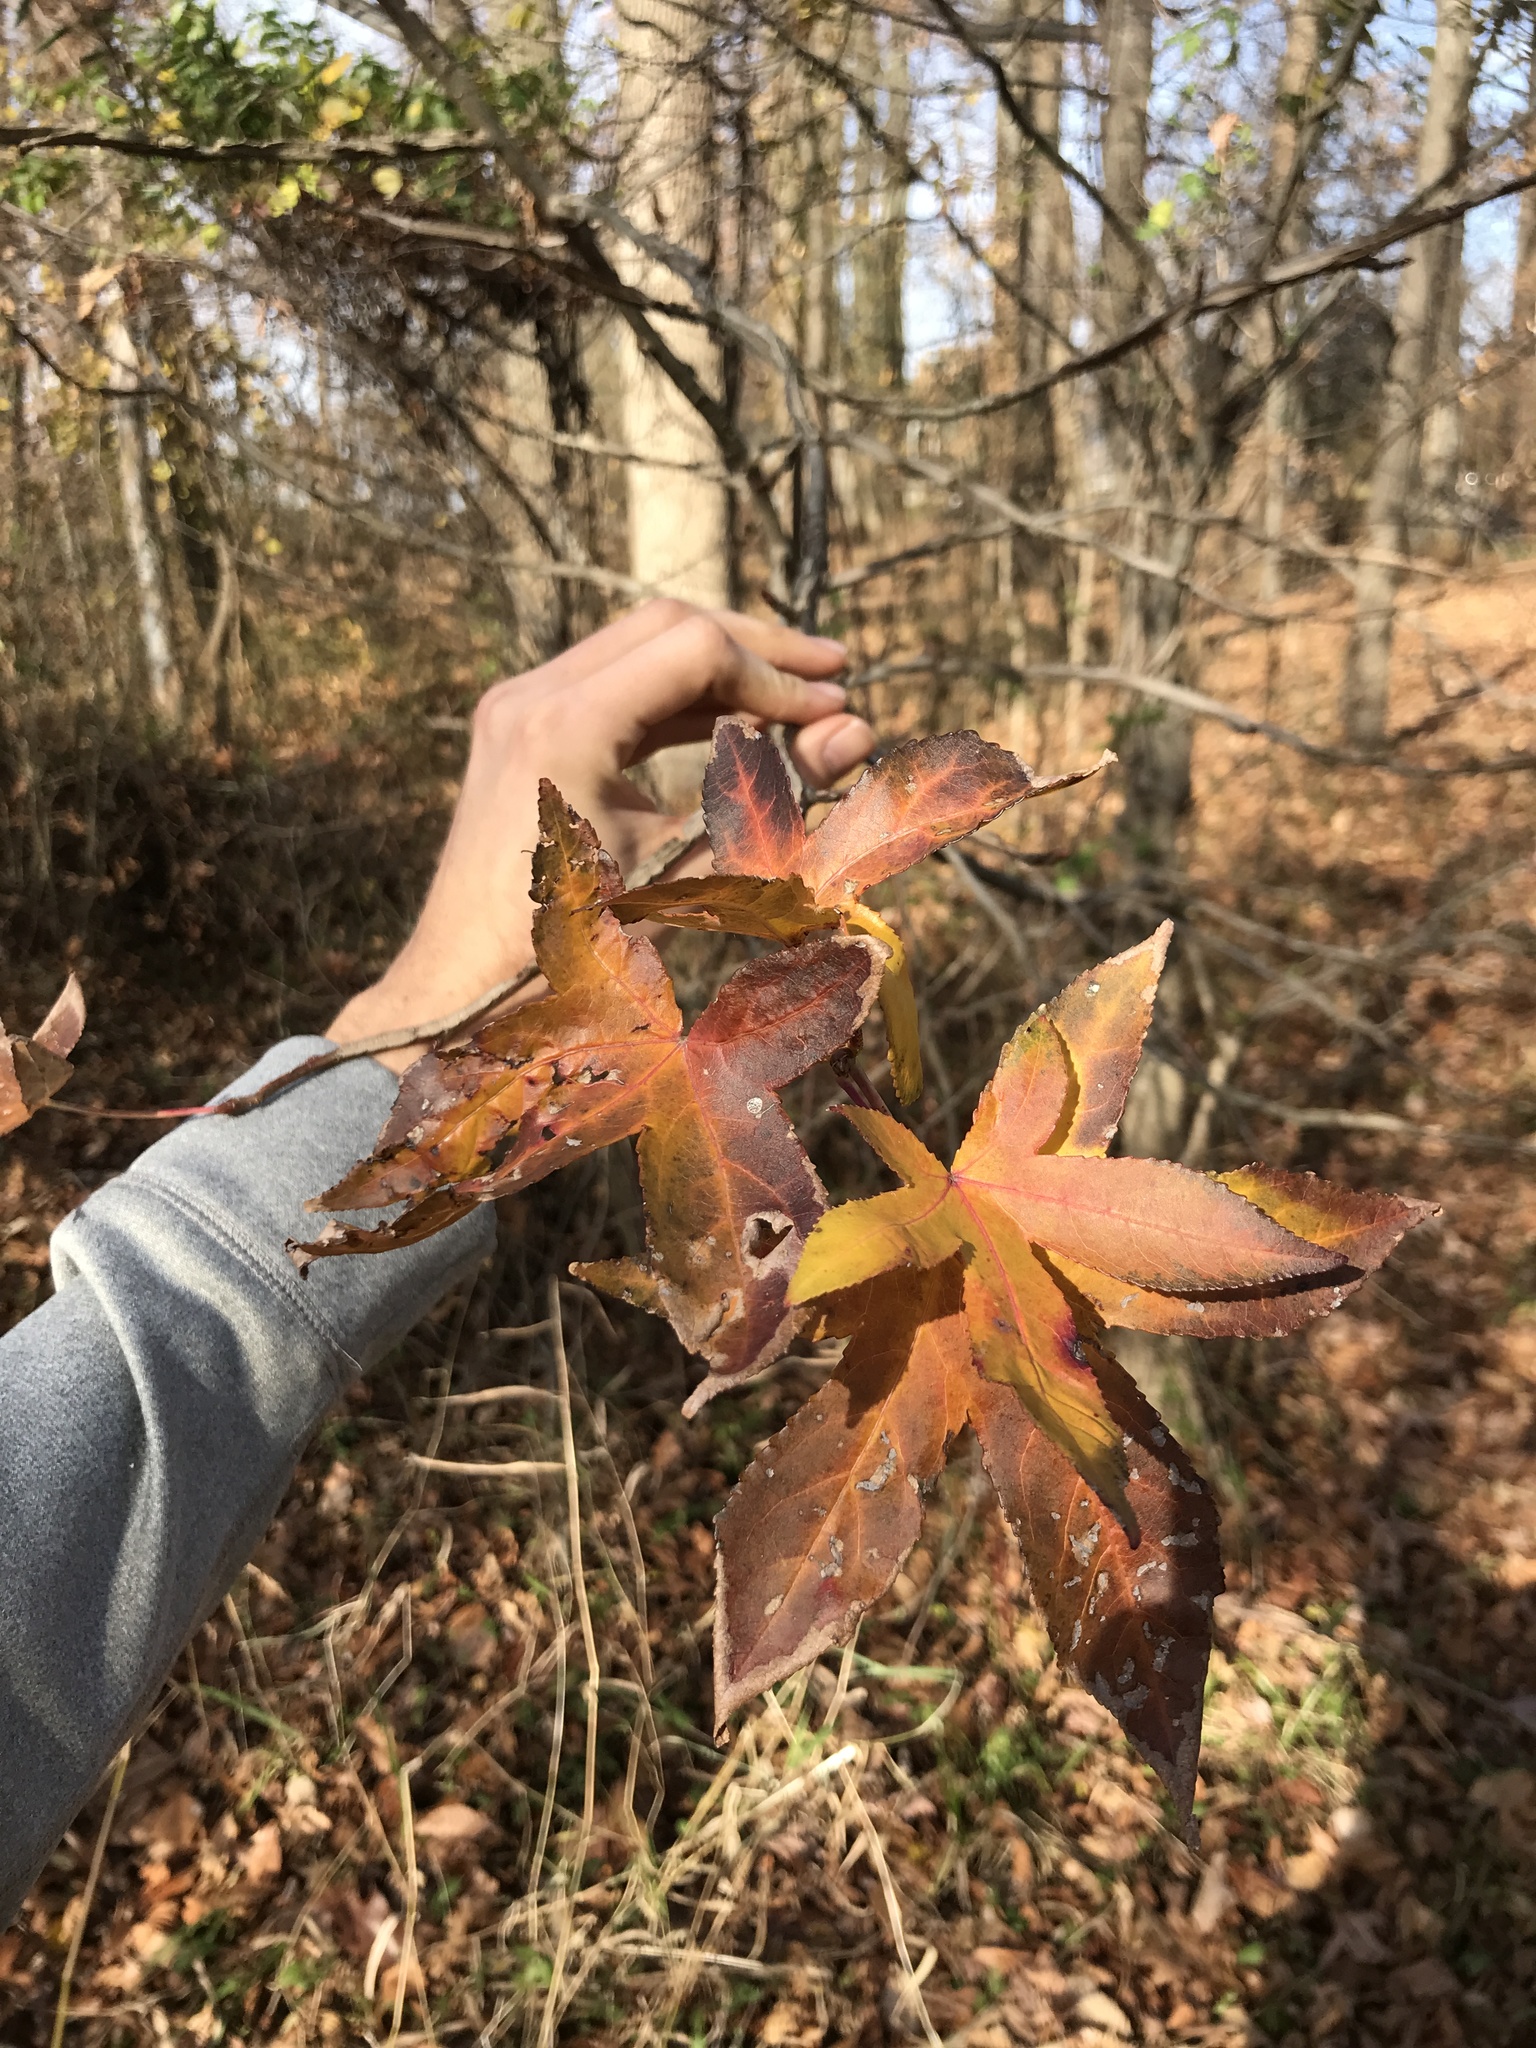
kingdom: Plantae
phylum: Tracheophyta
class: Magnoliopsida
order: Saxifragales
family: Altingiaceae
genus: Liquidambar
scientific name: Liquidambar styraciflua
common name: Sweet gum
